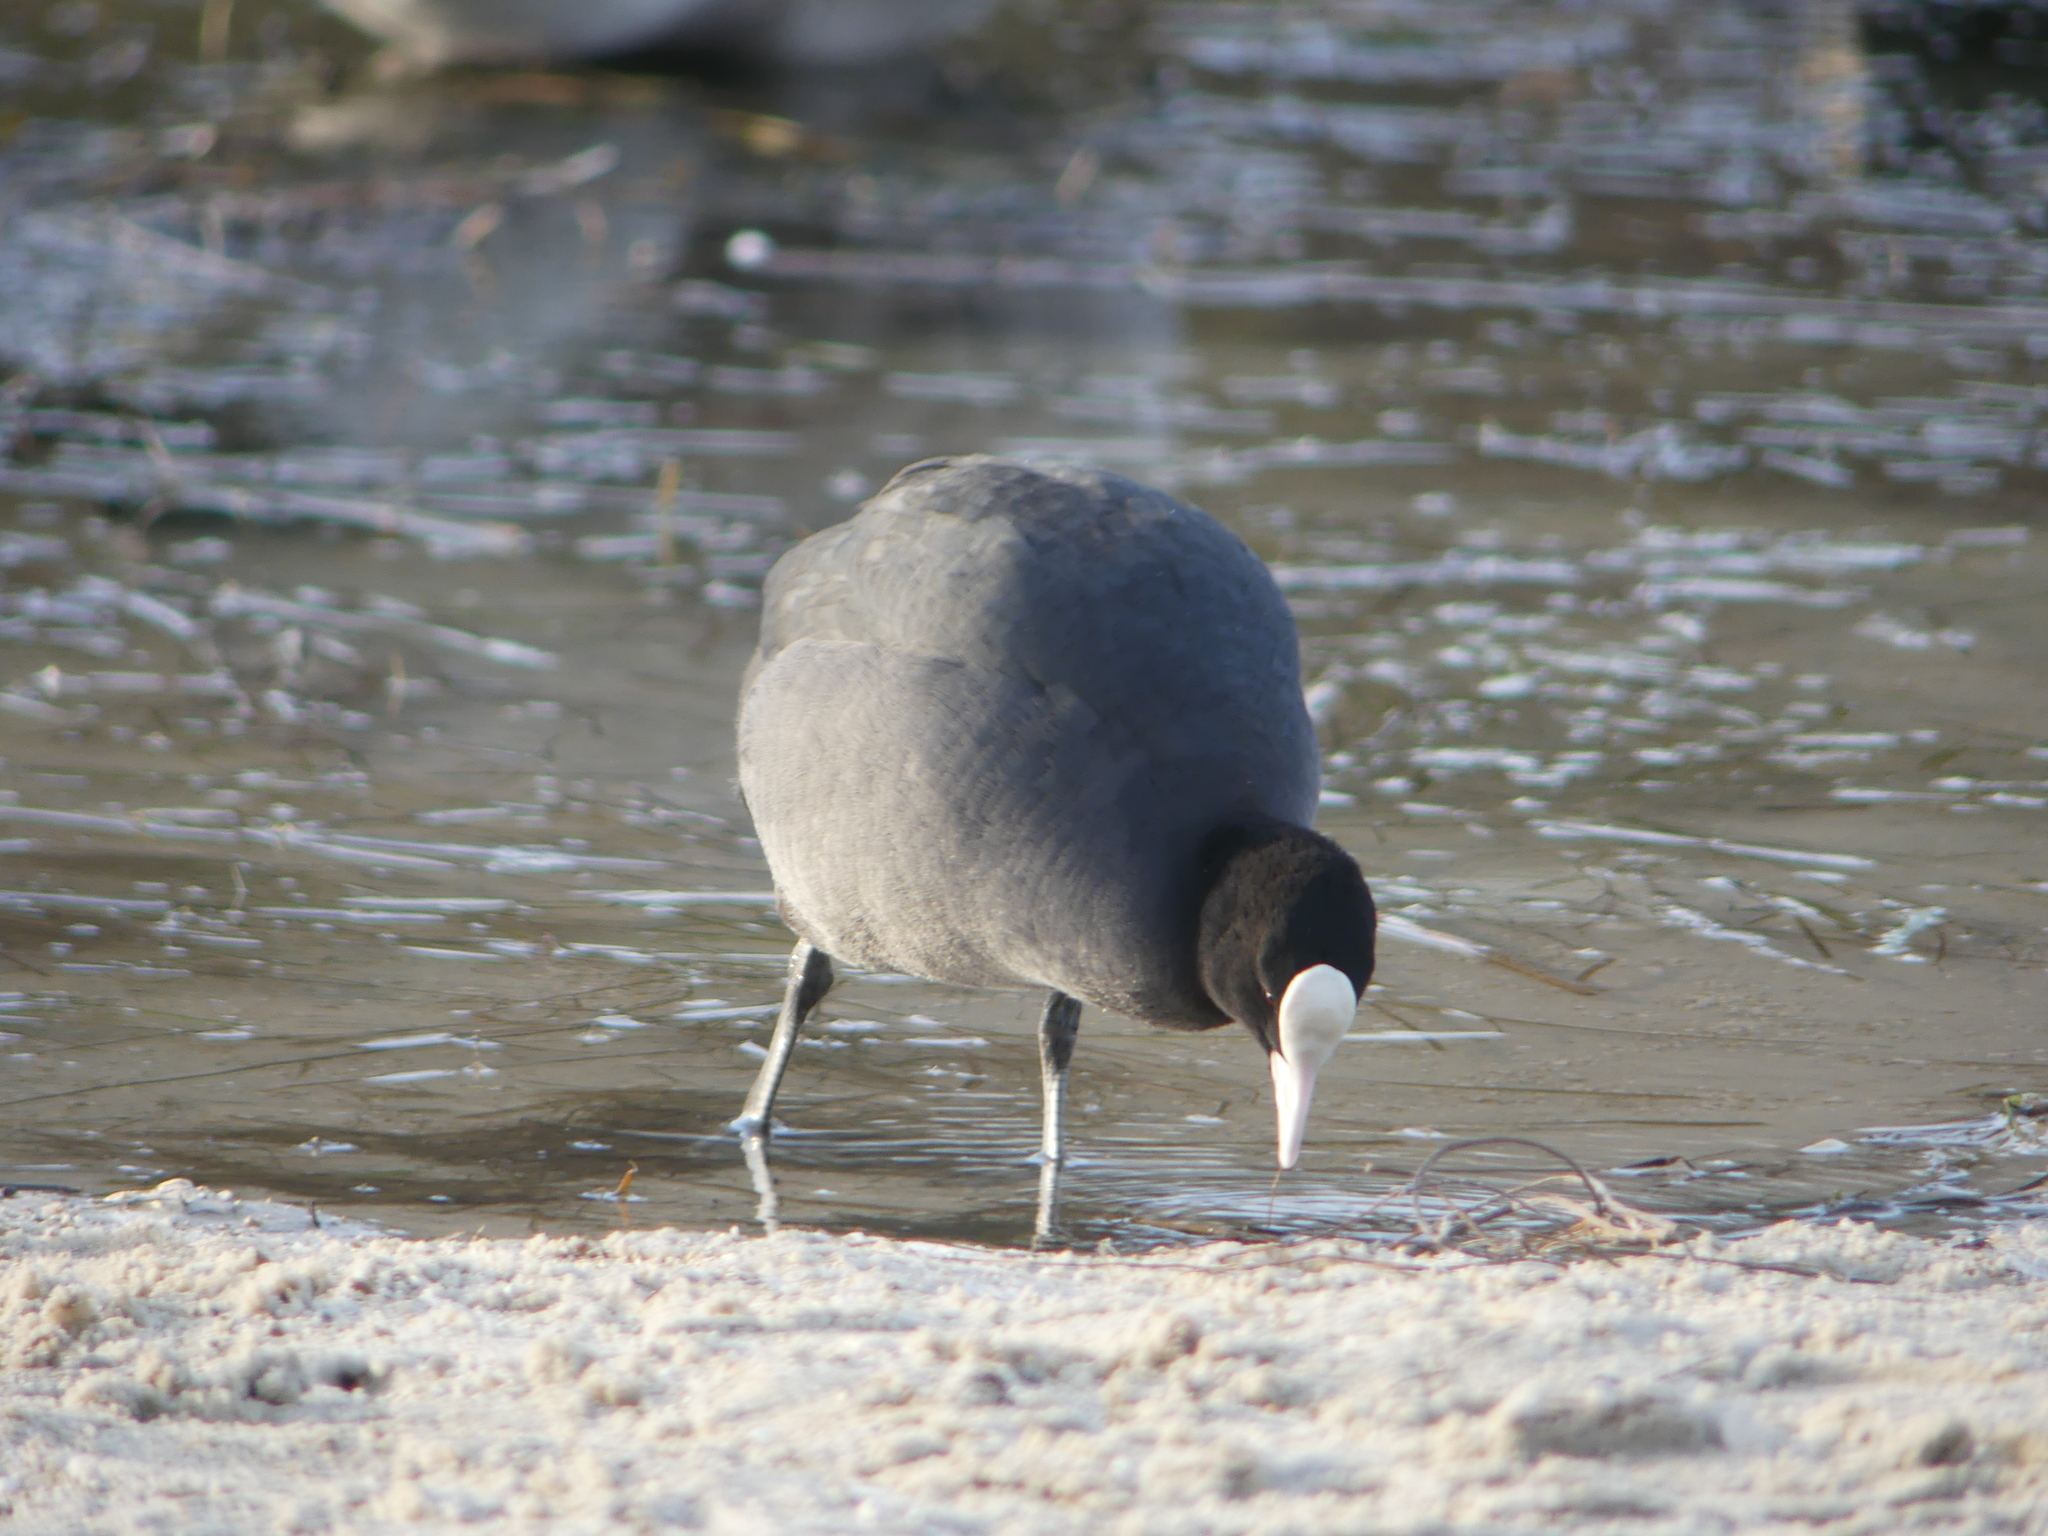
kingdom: Animalia
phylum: Chordata
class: Aves
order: Gruiformes
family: Rallidae
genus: Fulica
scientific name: Fulica atra
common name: Eurasian coot
